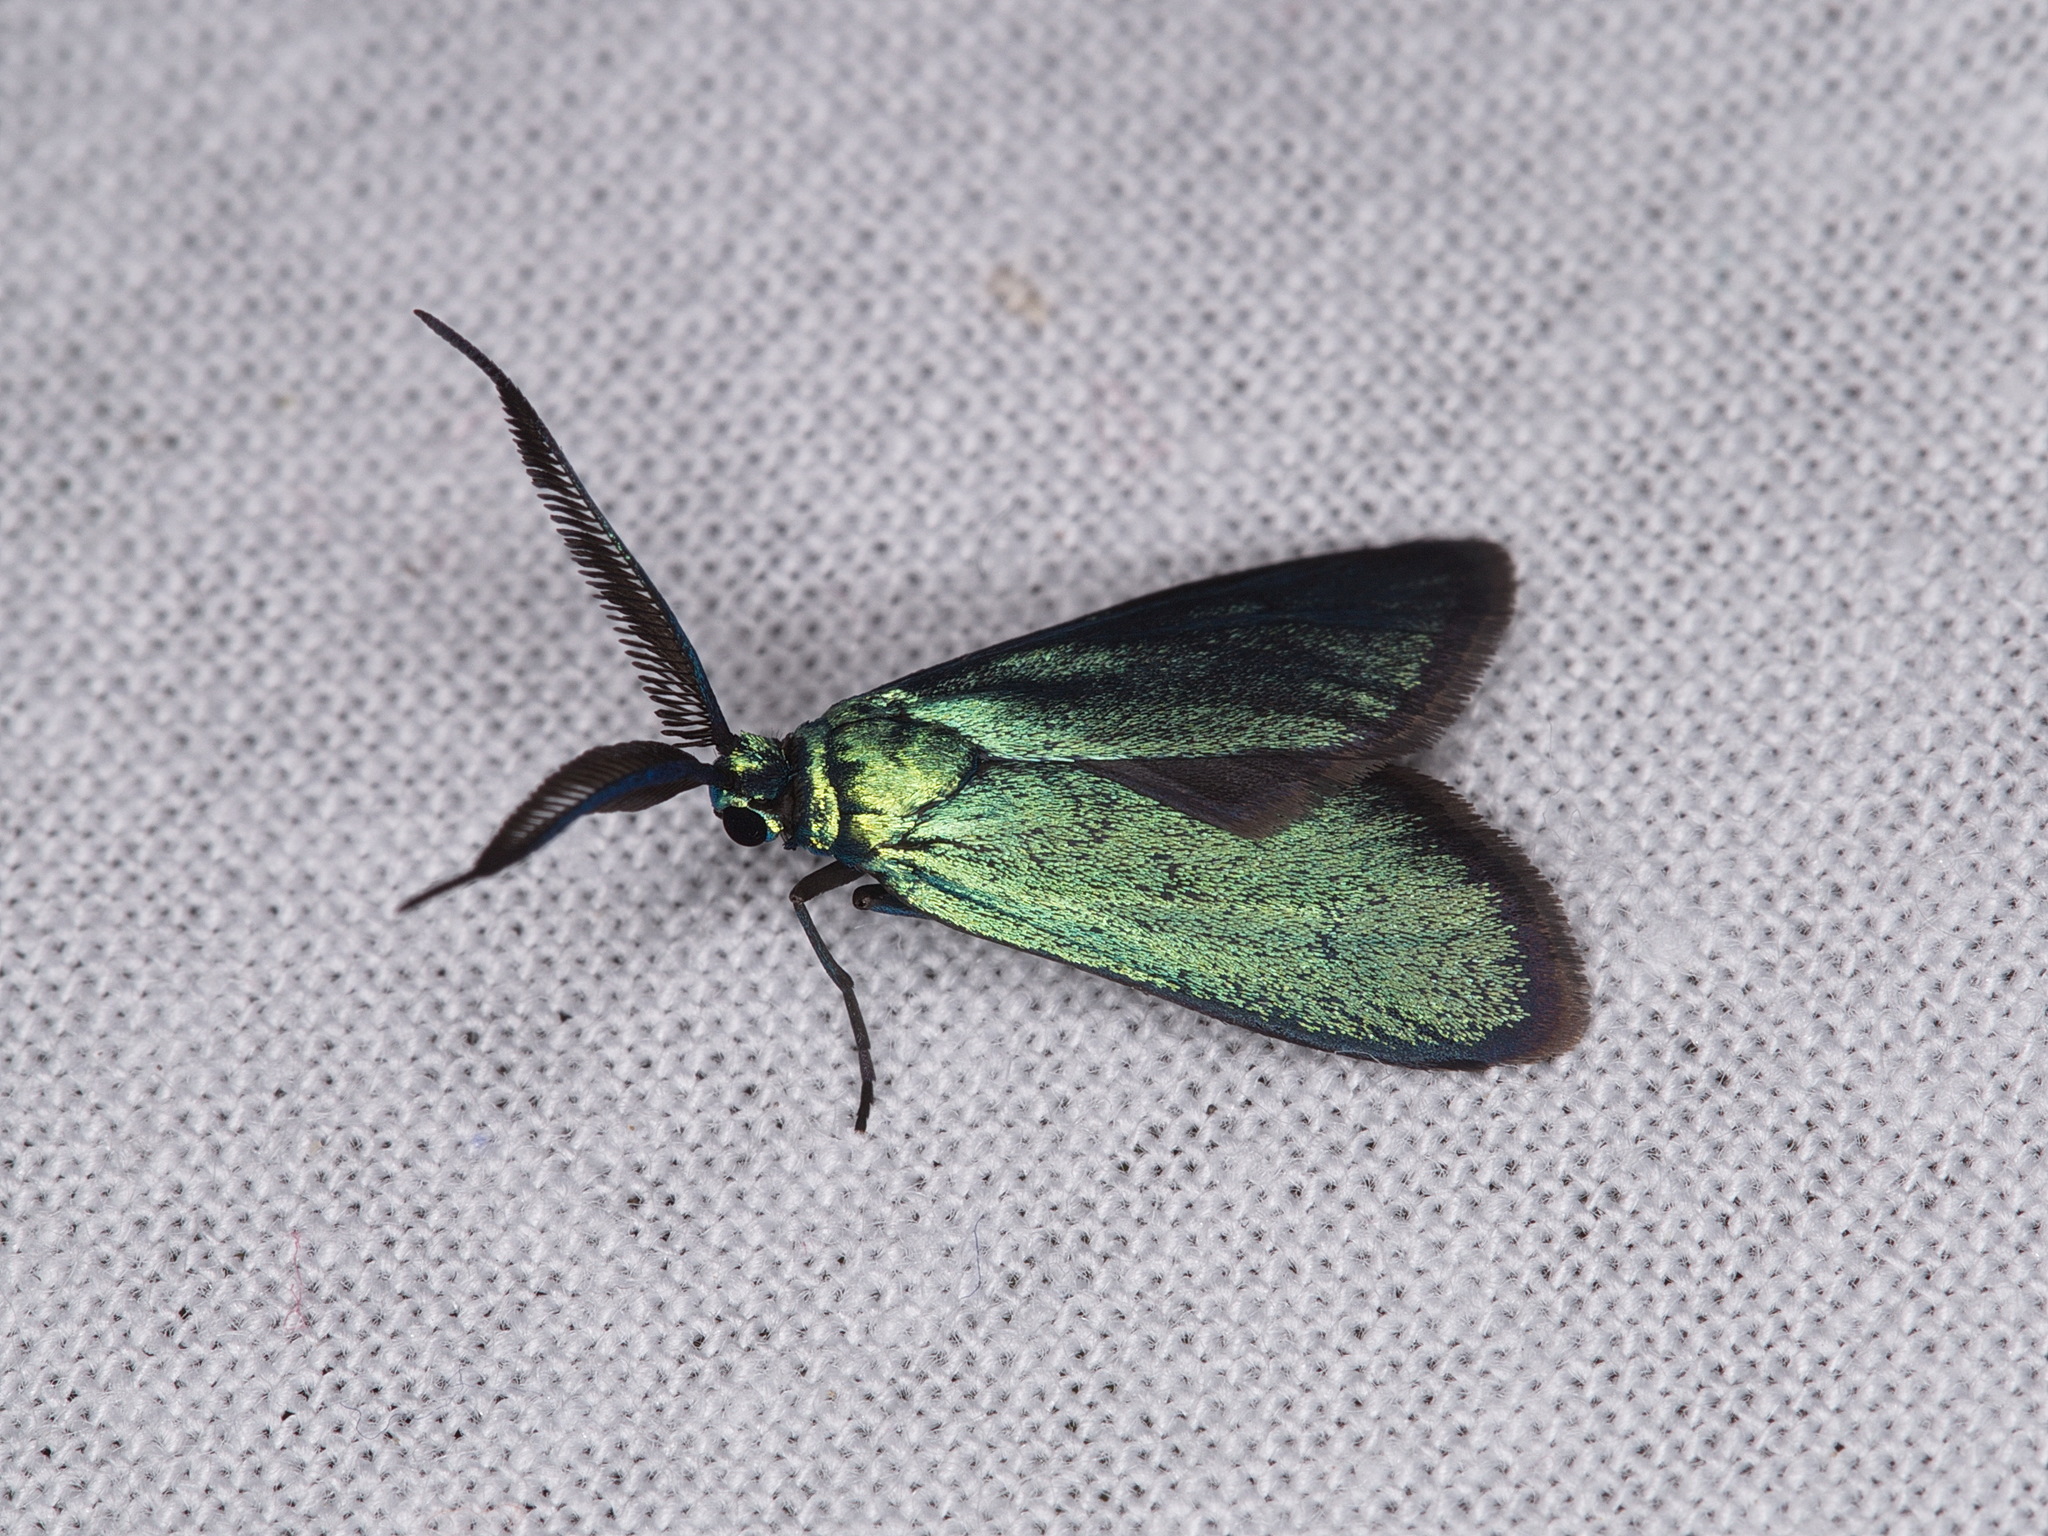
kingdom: Animalia
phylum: Arthropoda
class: Insecta
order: Lepidoptera
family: Zygaenidae
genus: Pollanisus
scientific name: Pollanisus apicalis
